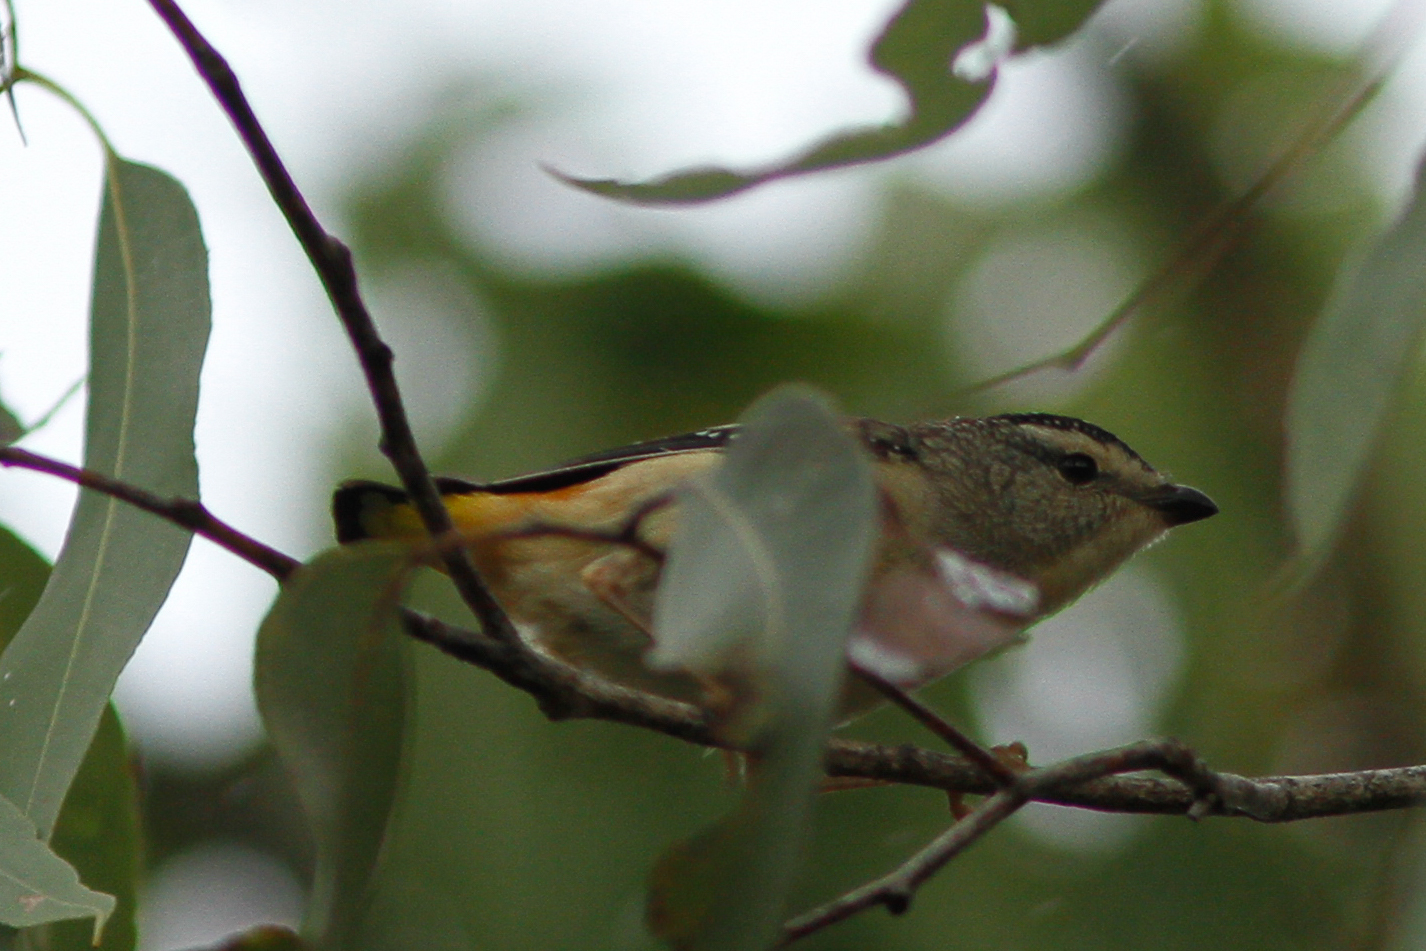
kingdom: Animalia
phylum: Chordata
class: Aves
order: Passeriformes
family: Pardalotidae
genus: Pardalotus
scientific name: Pardalotus punctatus
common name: Spotted pardalote
